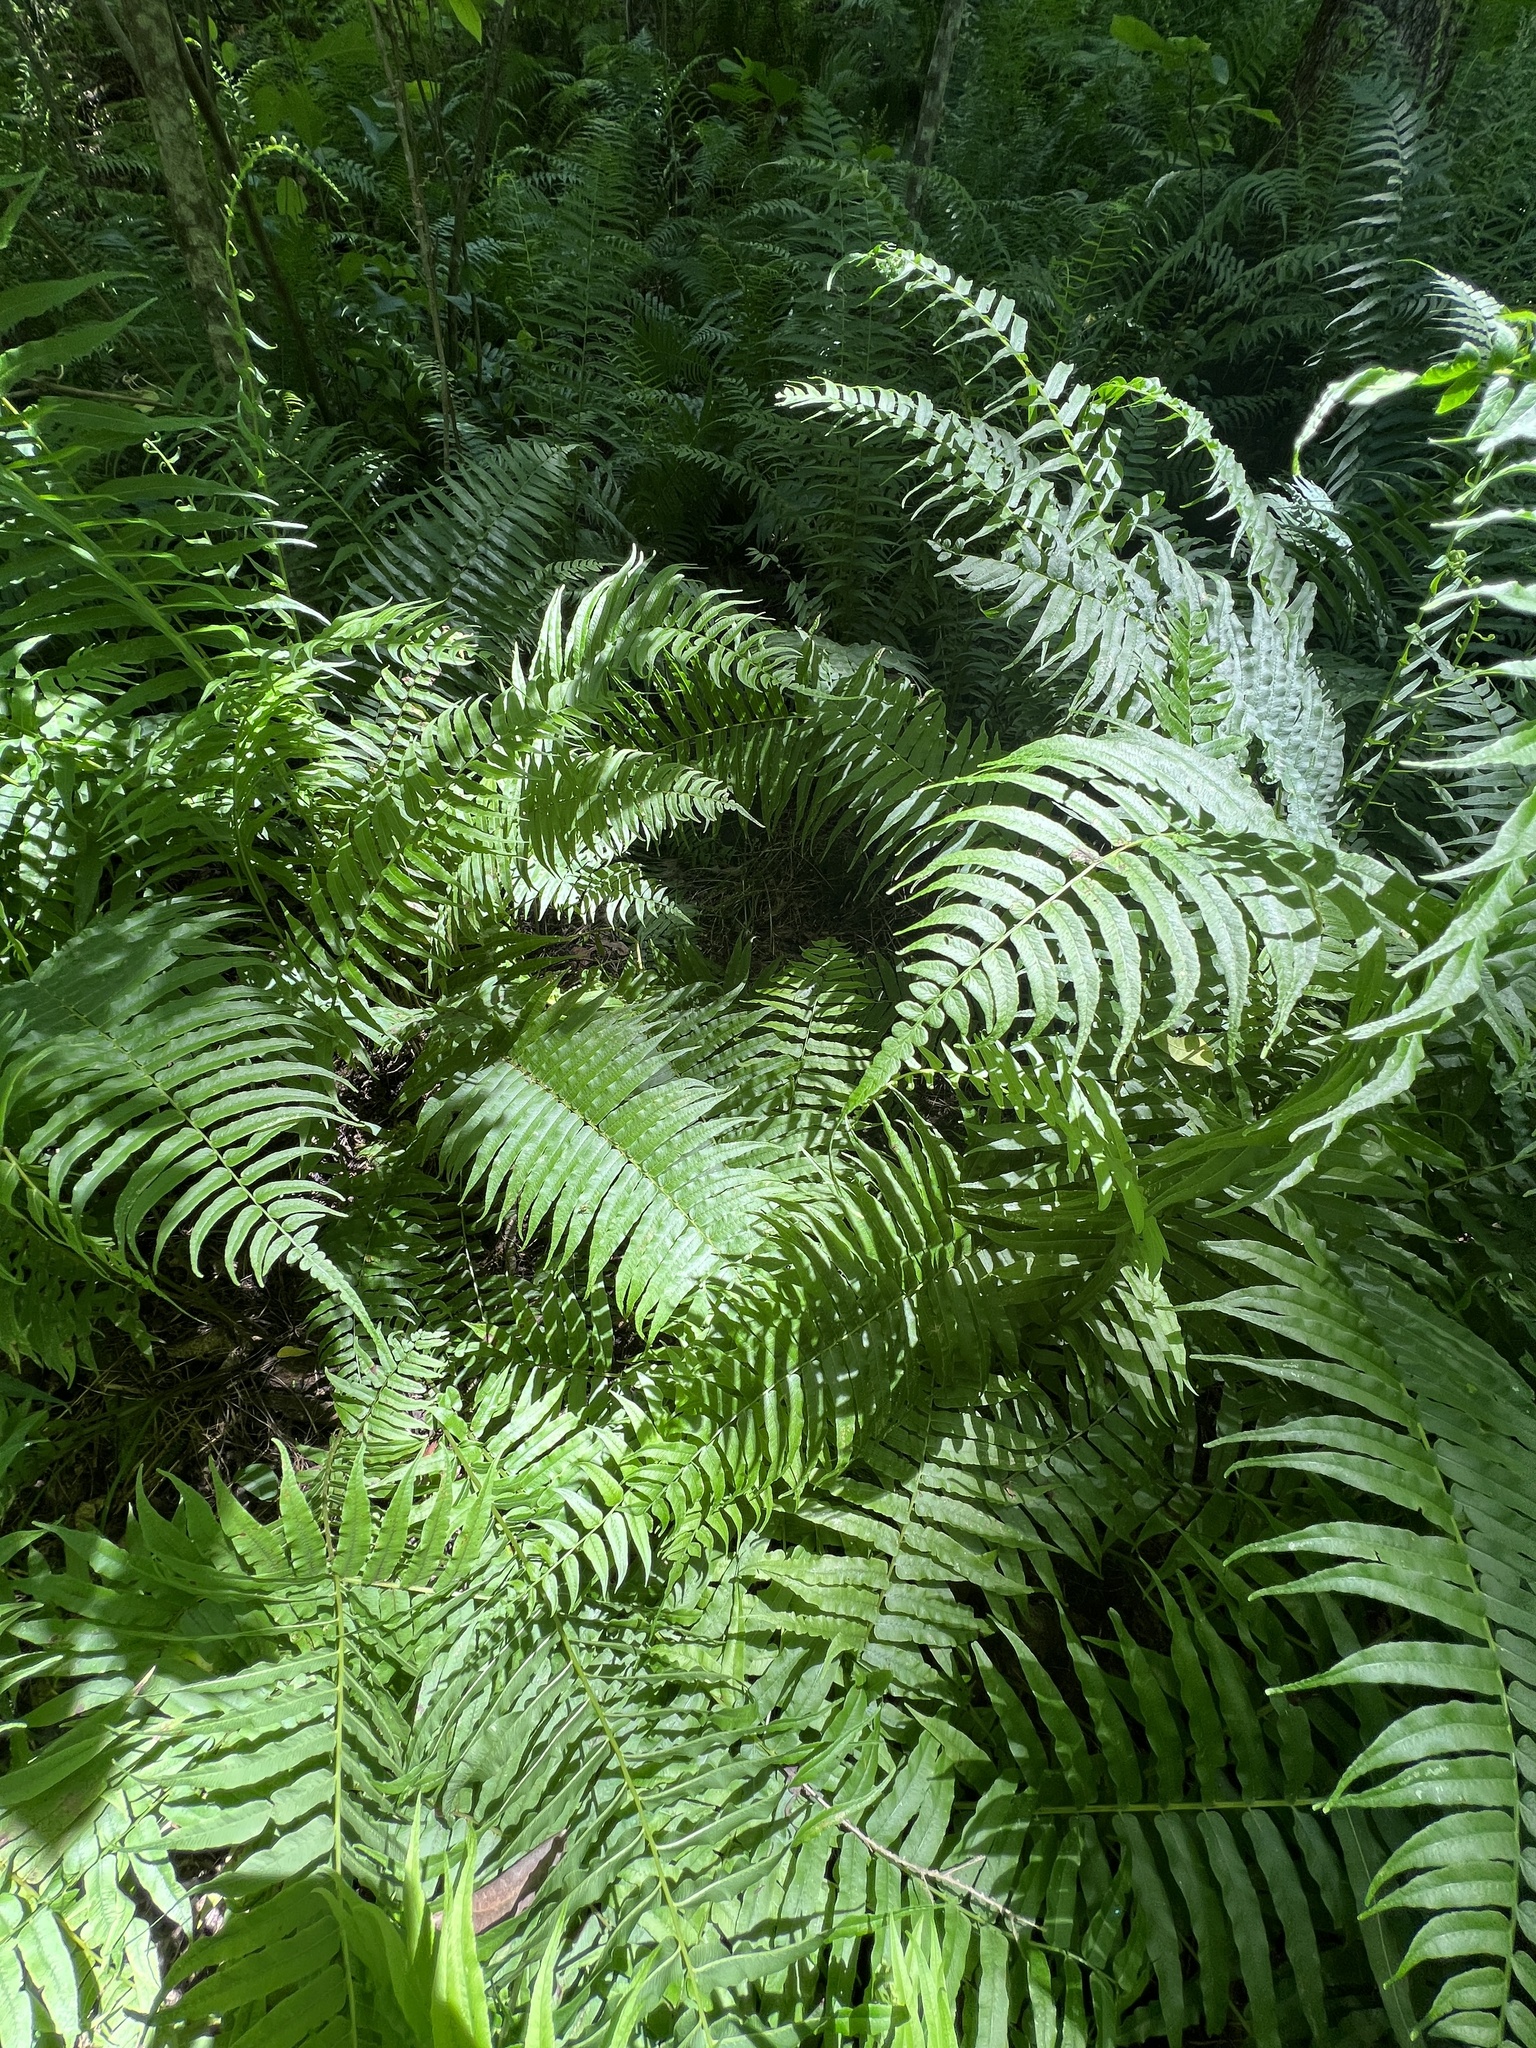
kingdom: Plantae
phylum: Tracheophyta
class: Polypodiopsida
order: Polypodiales
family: Diplaziopsidaceae
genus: Homalosorus
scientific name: Homalosorus pycnocarpos
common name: Glade fern
